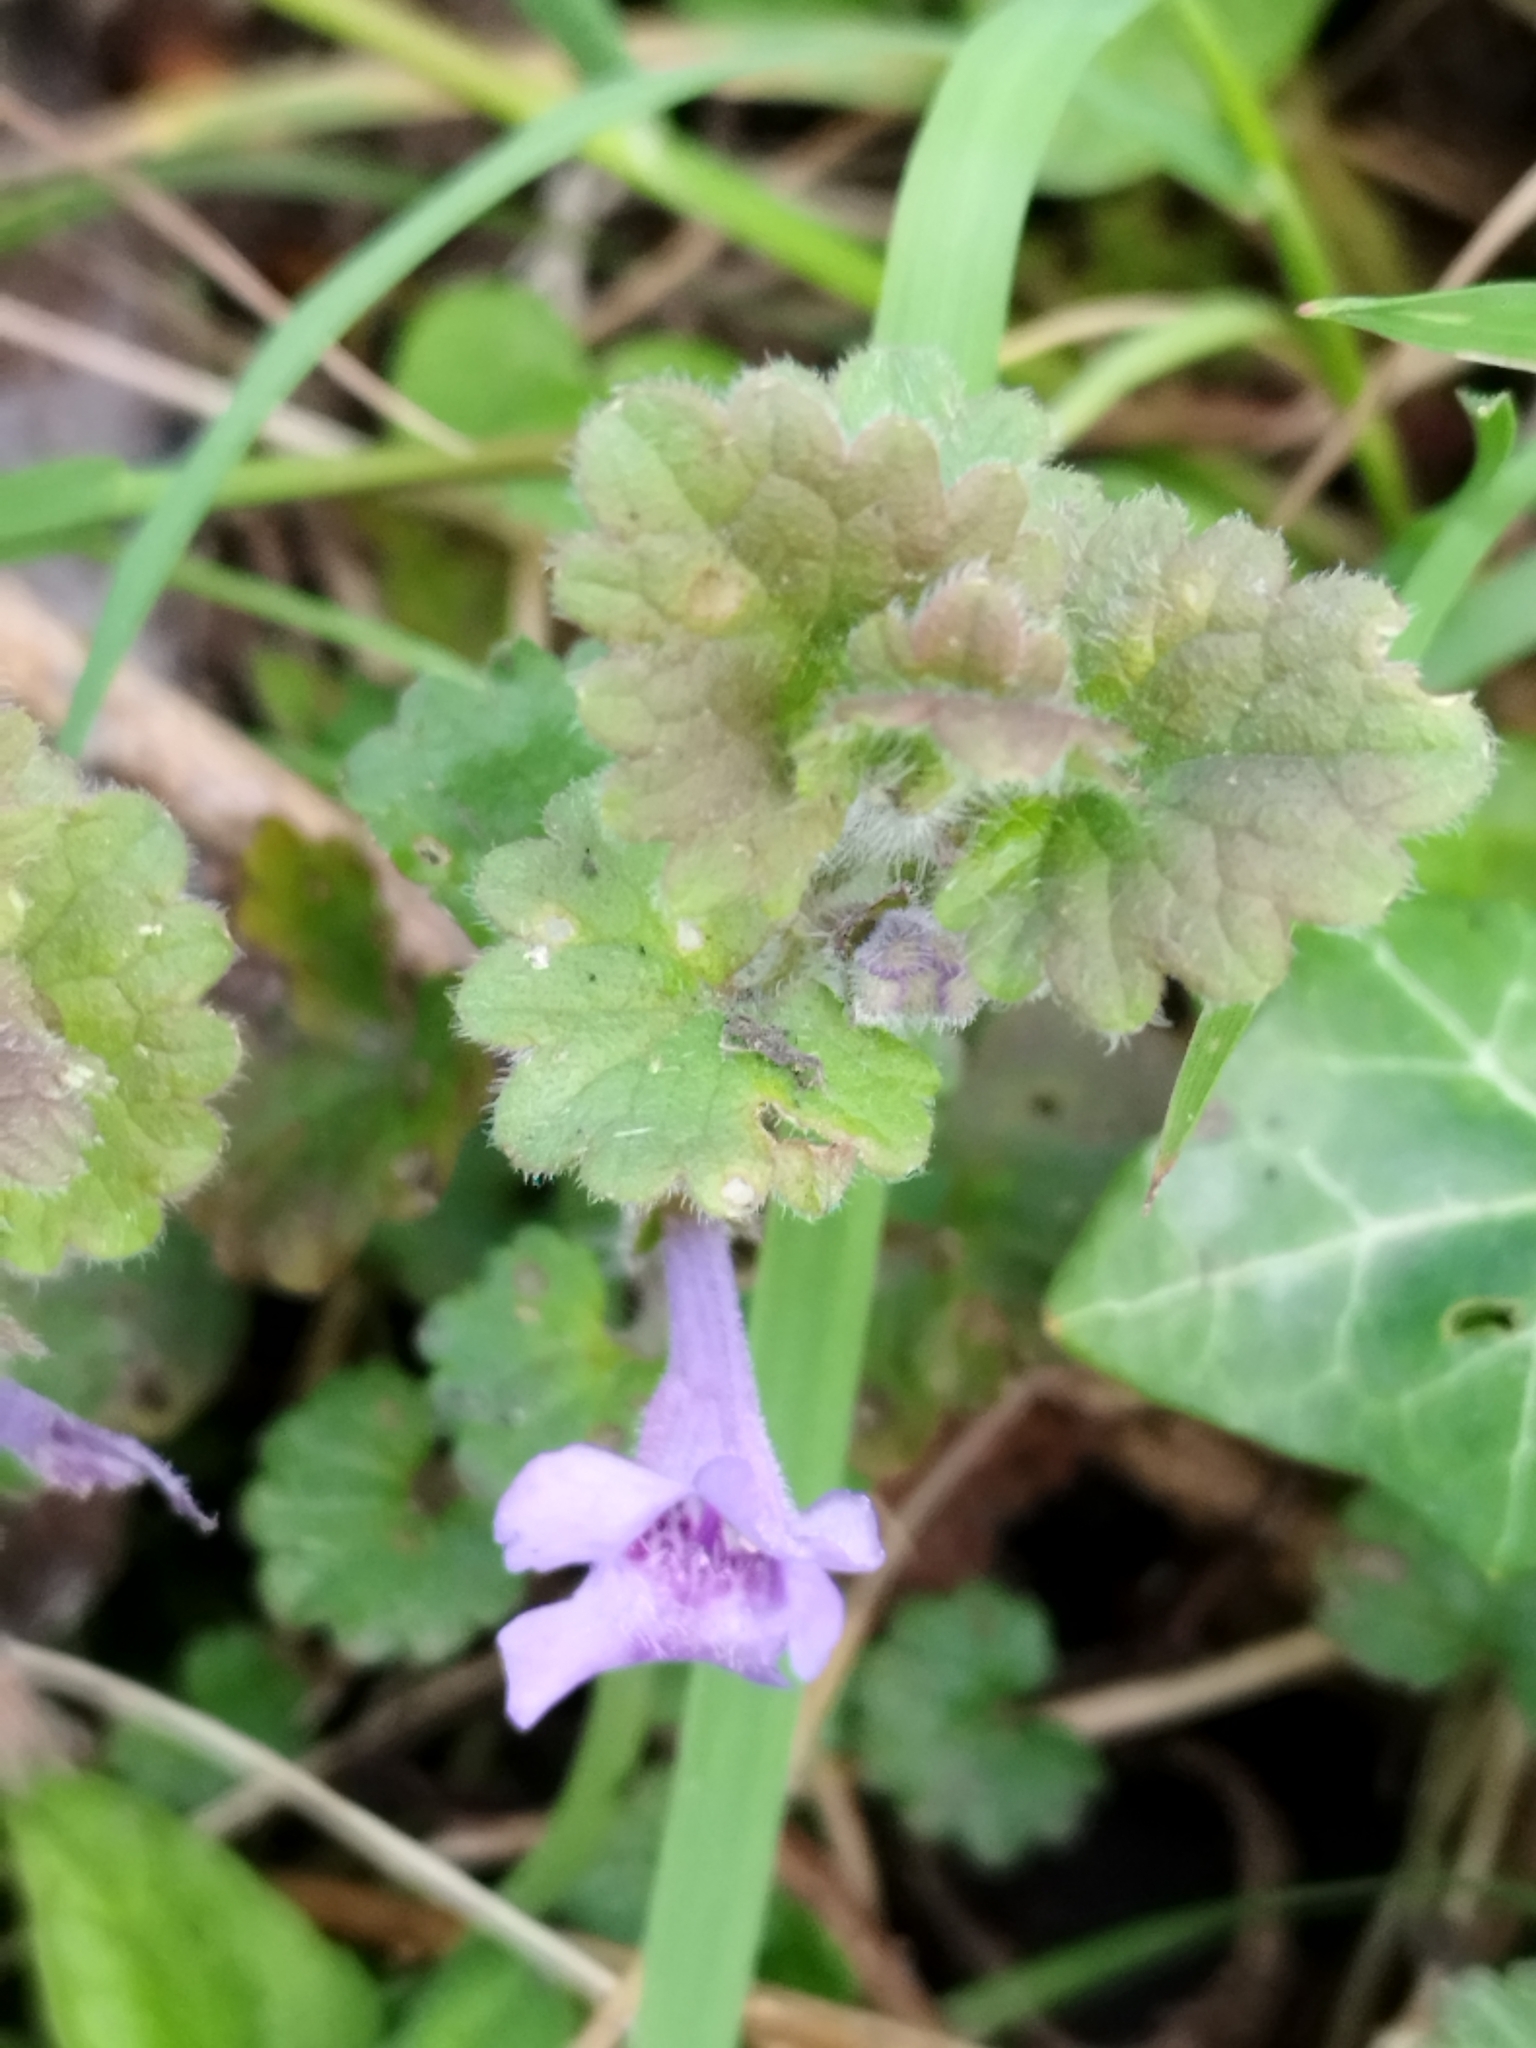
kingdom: Plantae
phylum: Tracheophyta
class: Magnoliopsida
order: Lamiales
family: Lamiaceae
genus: Glechoma
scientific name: Glechoma hederacea
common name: Ground ivy
